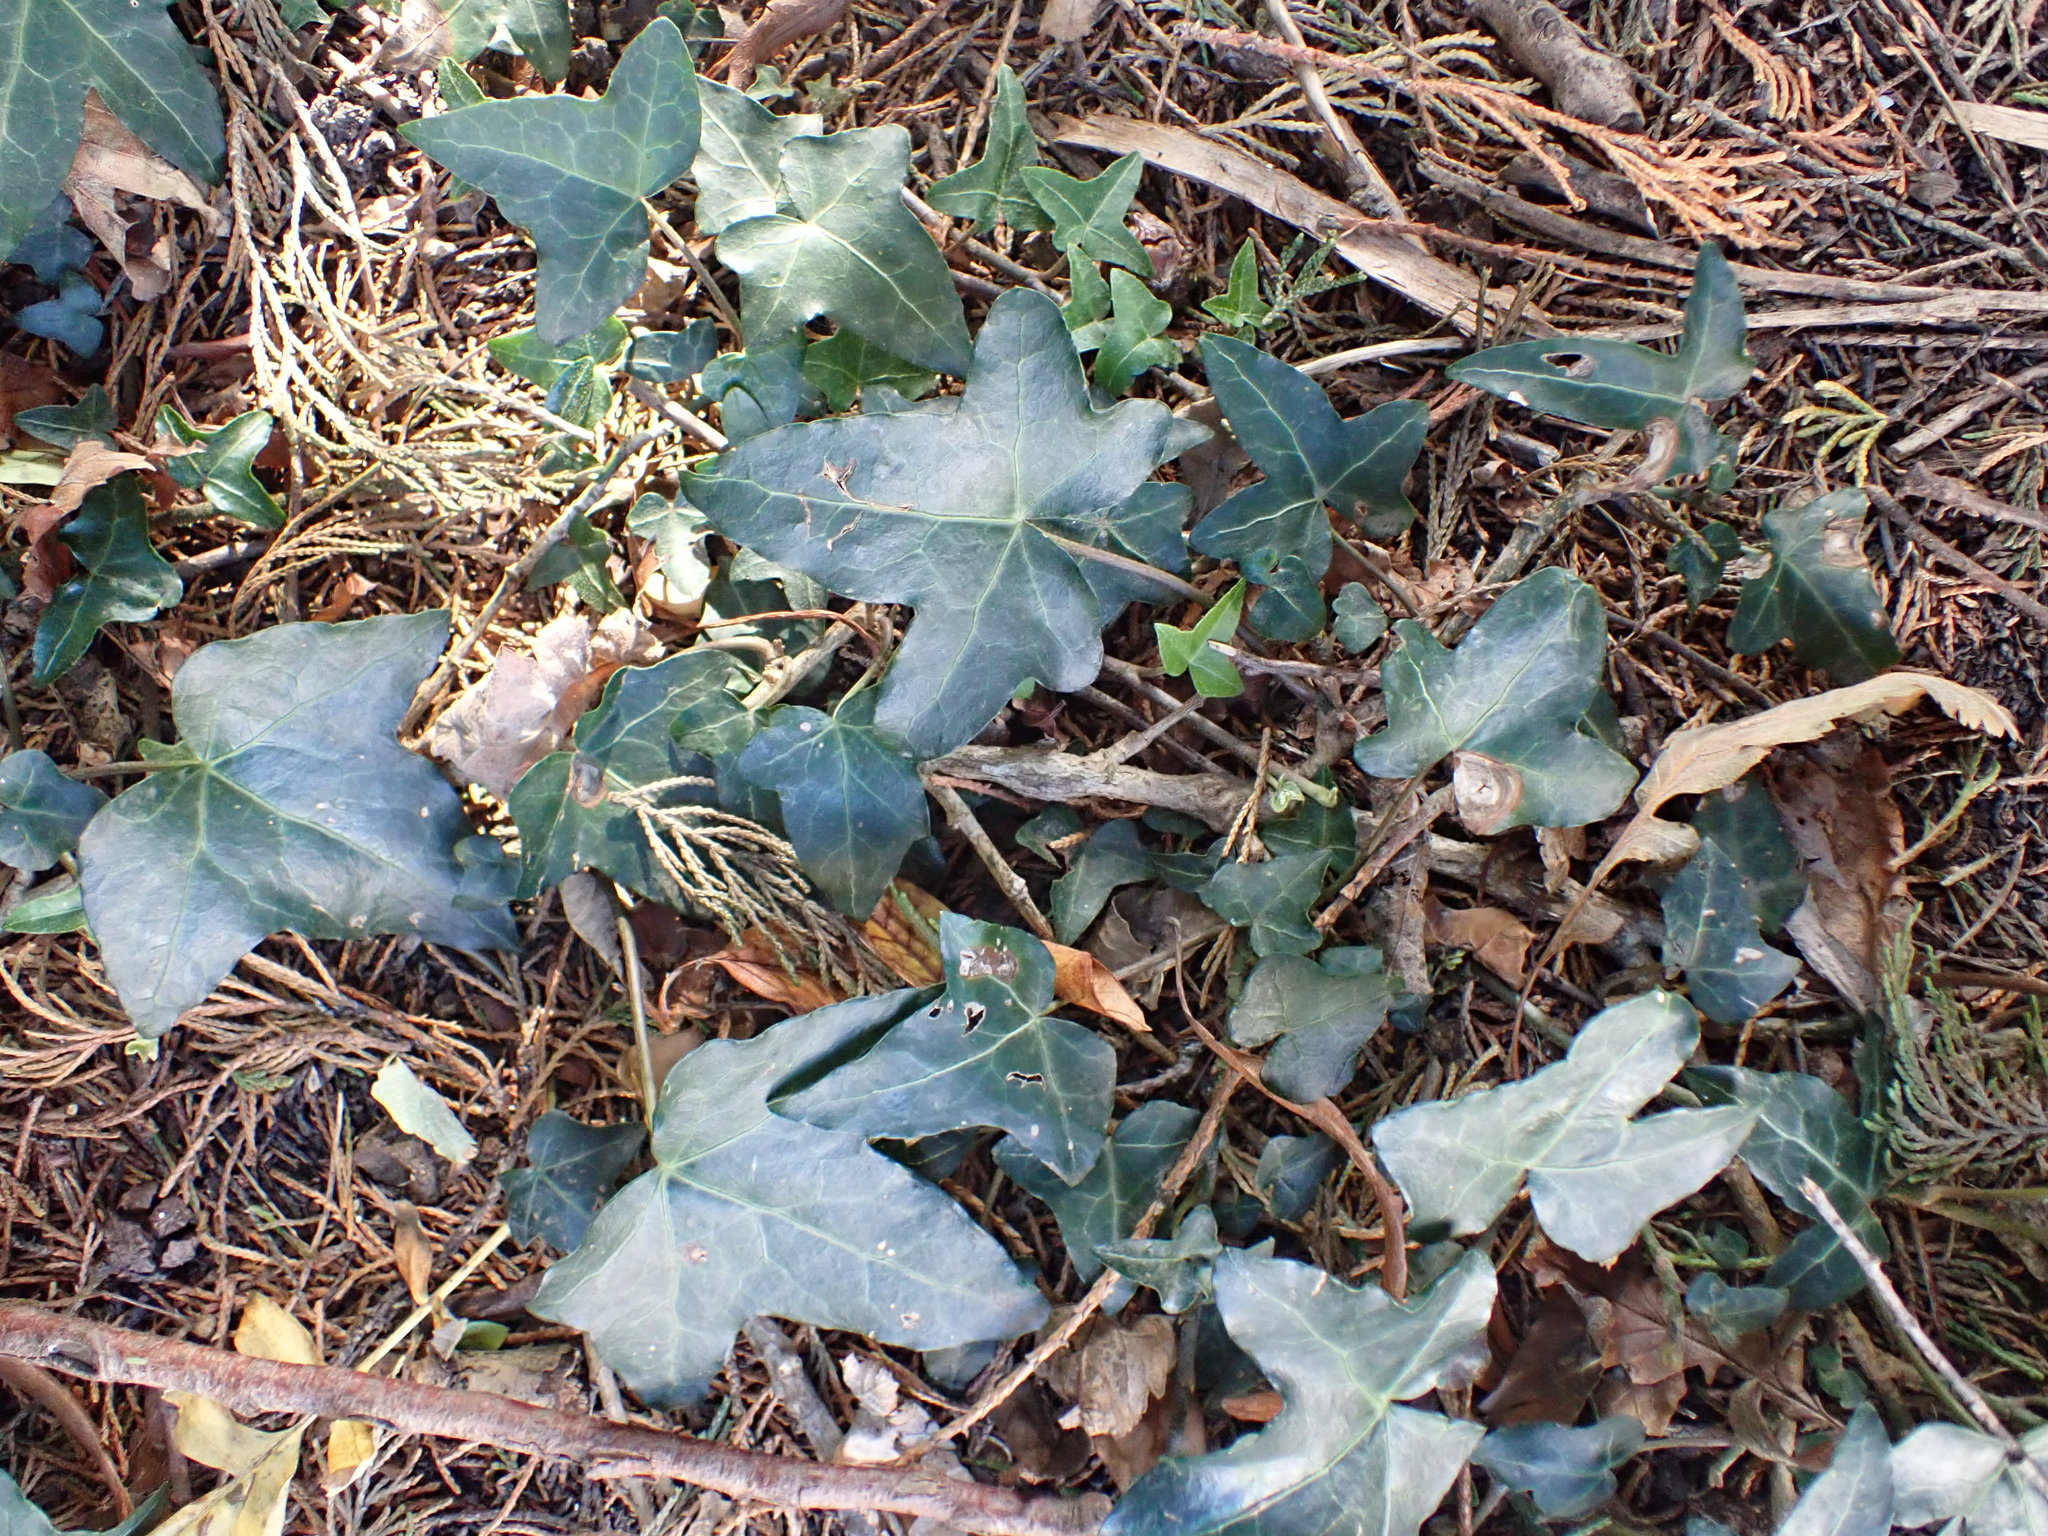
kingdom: Plantae
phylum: Tracheophyta
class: Magnoliopsida
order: Apiales
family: Araliaceae
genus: Hedera
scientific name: Hedera helix
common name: Ivy
